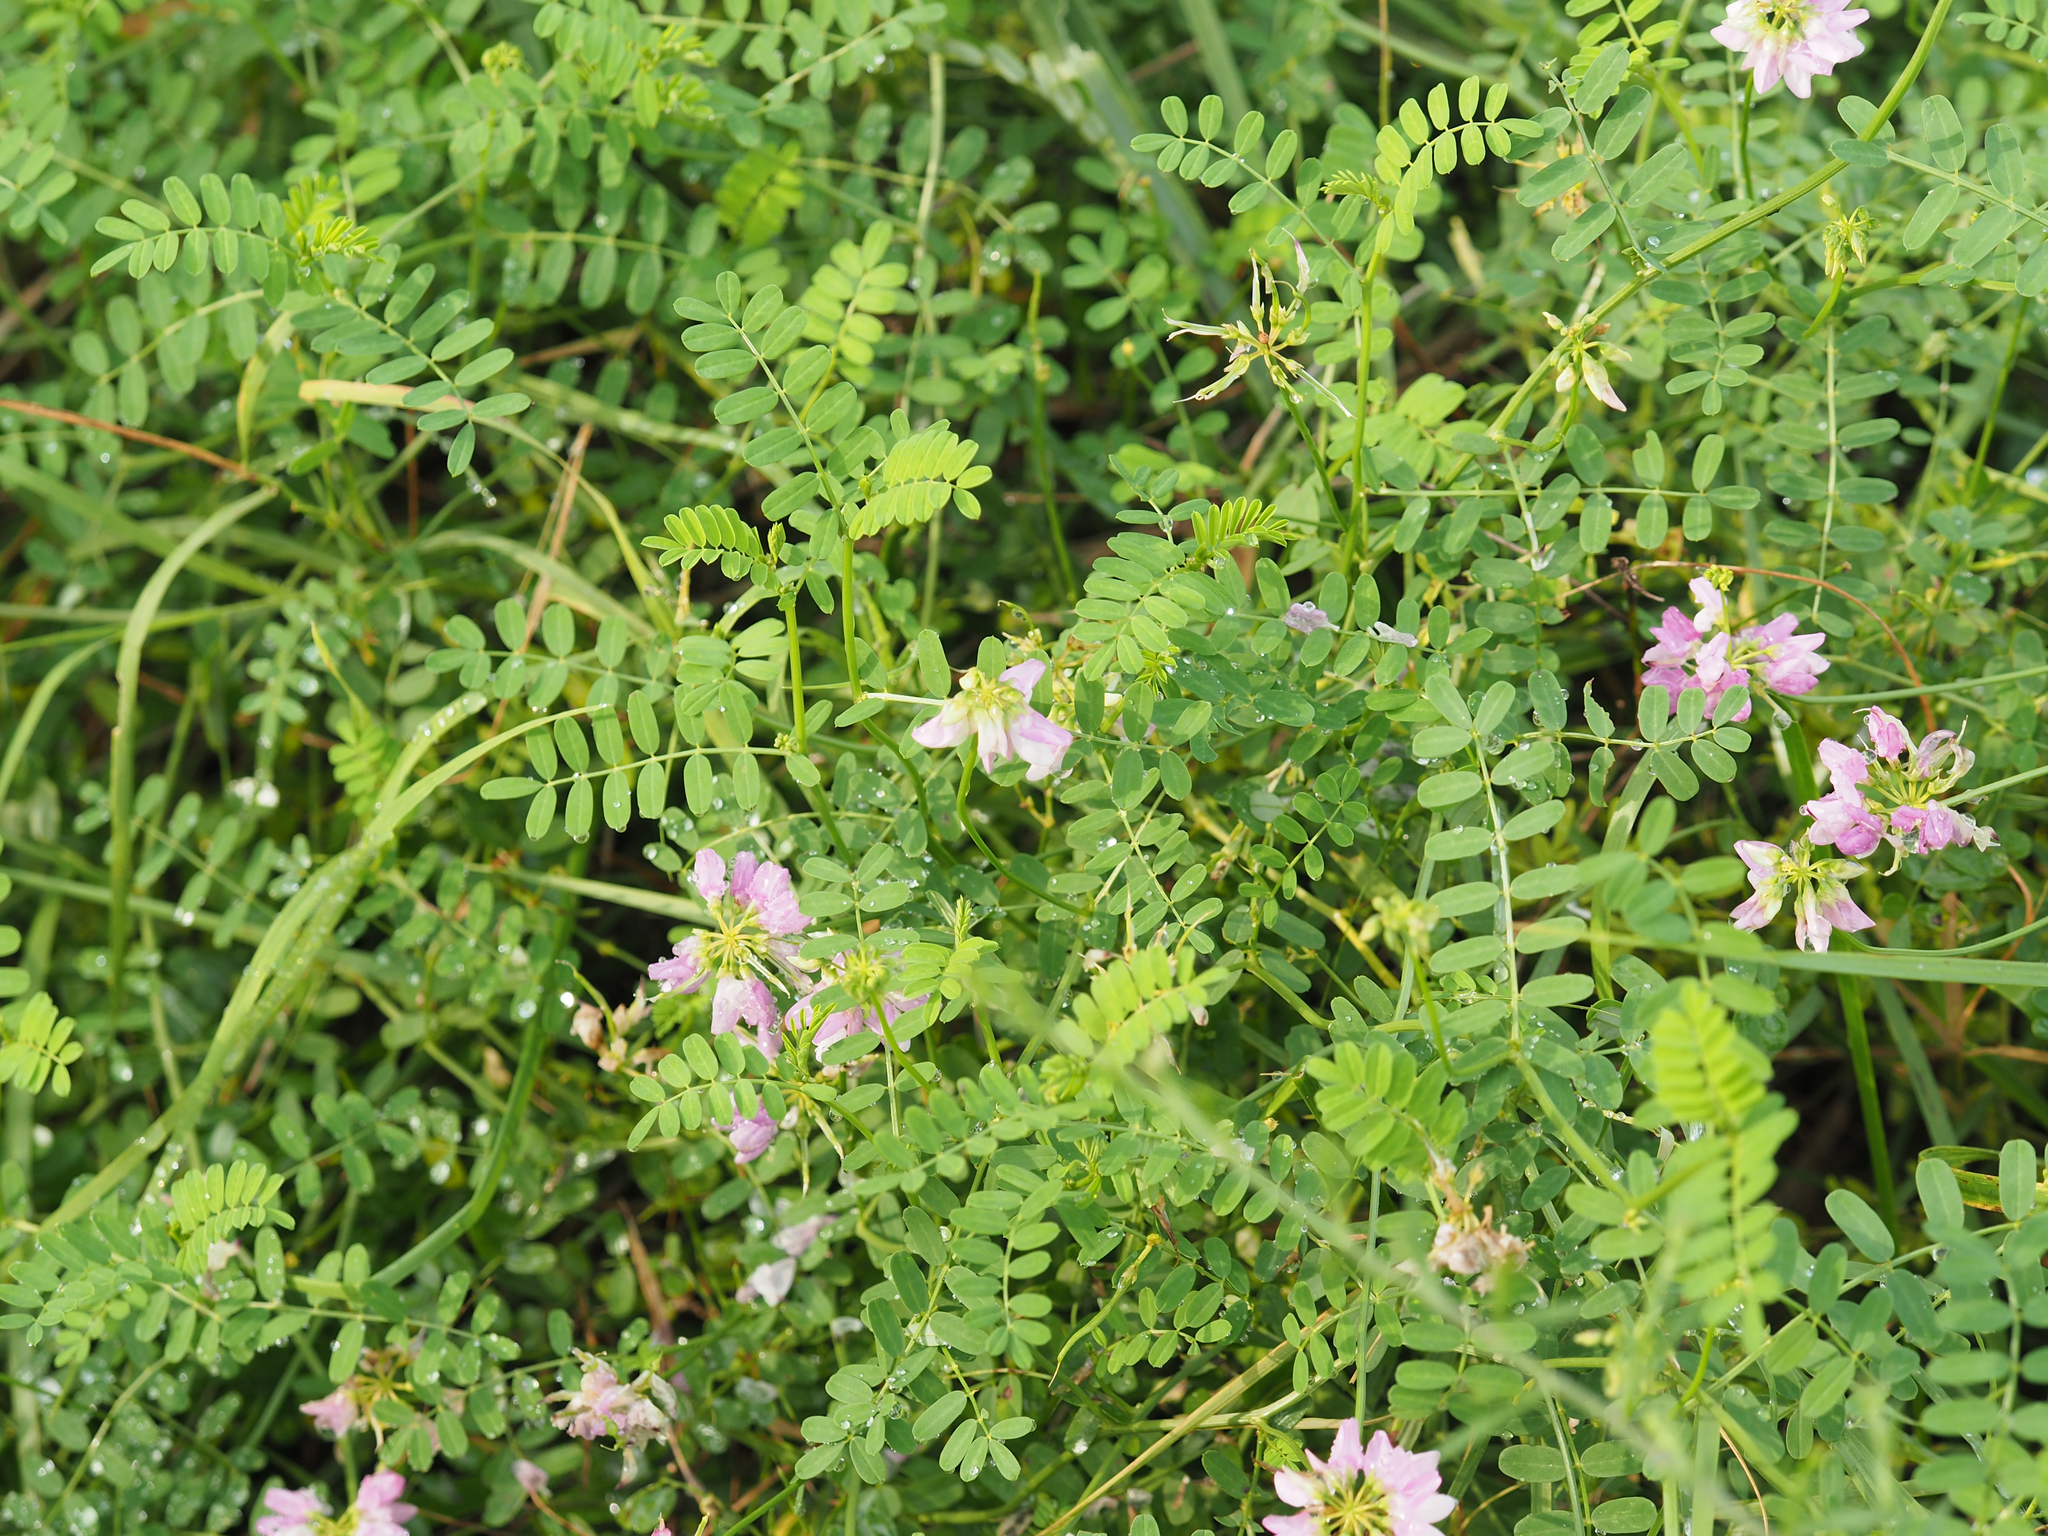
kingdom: Plantae
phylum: Tracheophyta
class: Magnoliopsida
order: Fabales
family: Fabaceae
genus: Coronilla
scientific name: Coronilla varia
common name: Crownvetch
